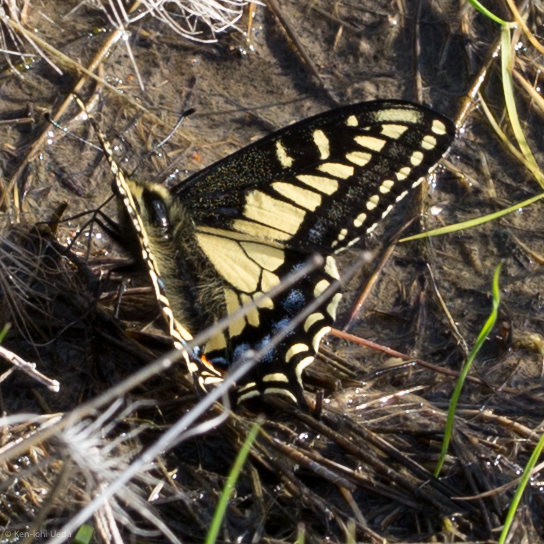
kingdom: Animalia
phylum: Arthropoda
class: Insecta
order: Lepidoptera
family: Papilionidae
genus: Papilio
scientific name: Papilio zelicaon
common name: Anise swallowtail
